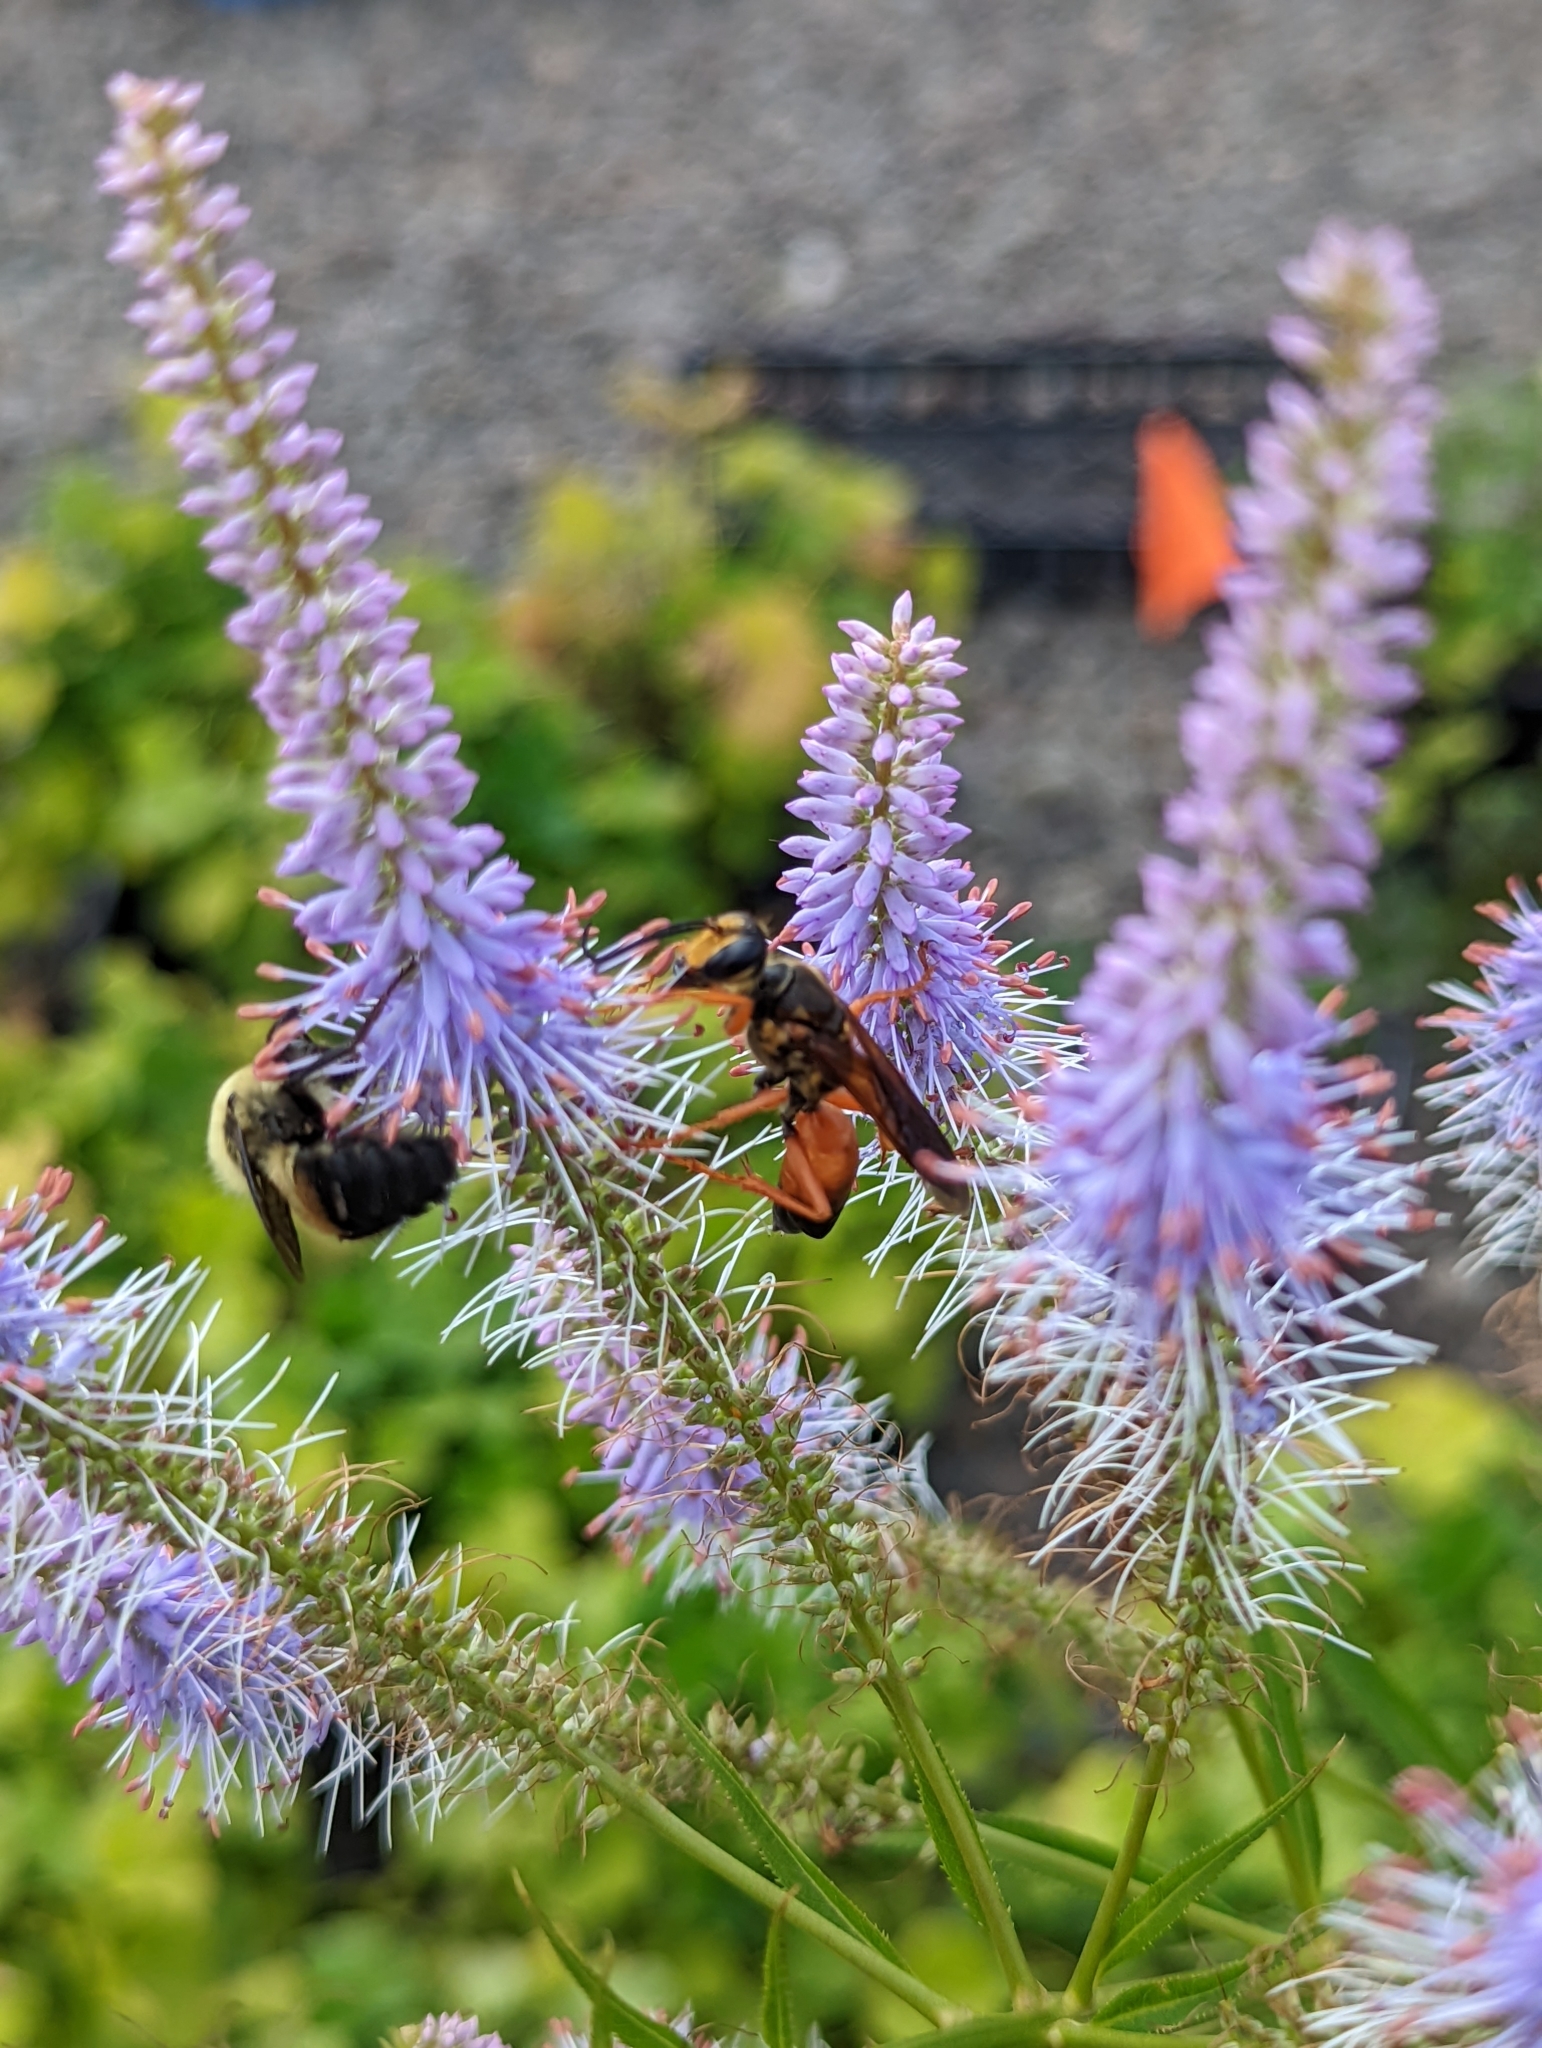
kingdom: Animalia
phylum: Arthropoda
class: Insecta
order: Hymenoptera
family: Sphecidae
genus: Sphex
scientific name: Sphex ichneumoneus
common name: Great golden digger wasp
